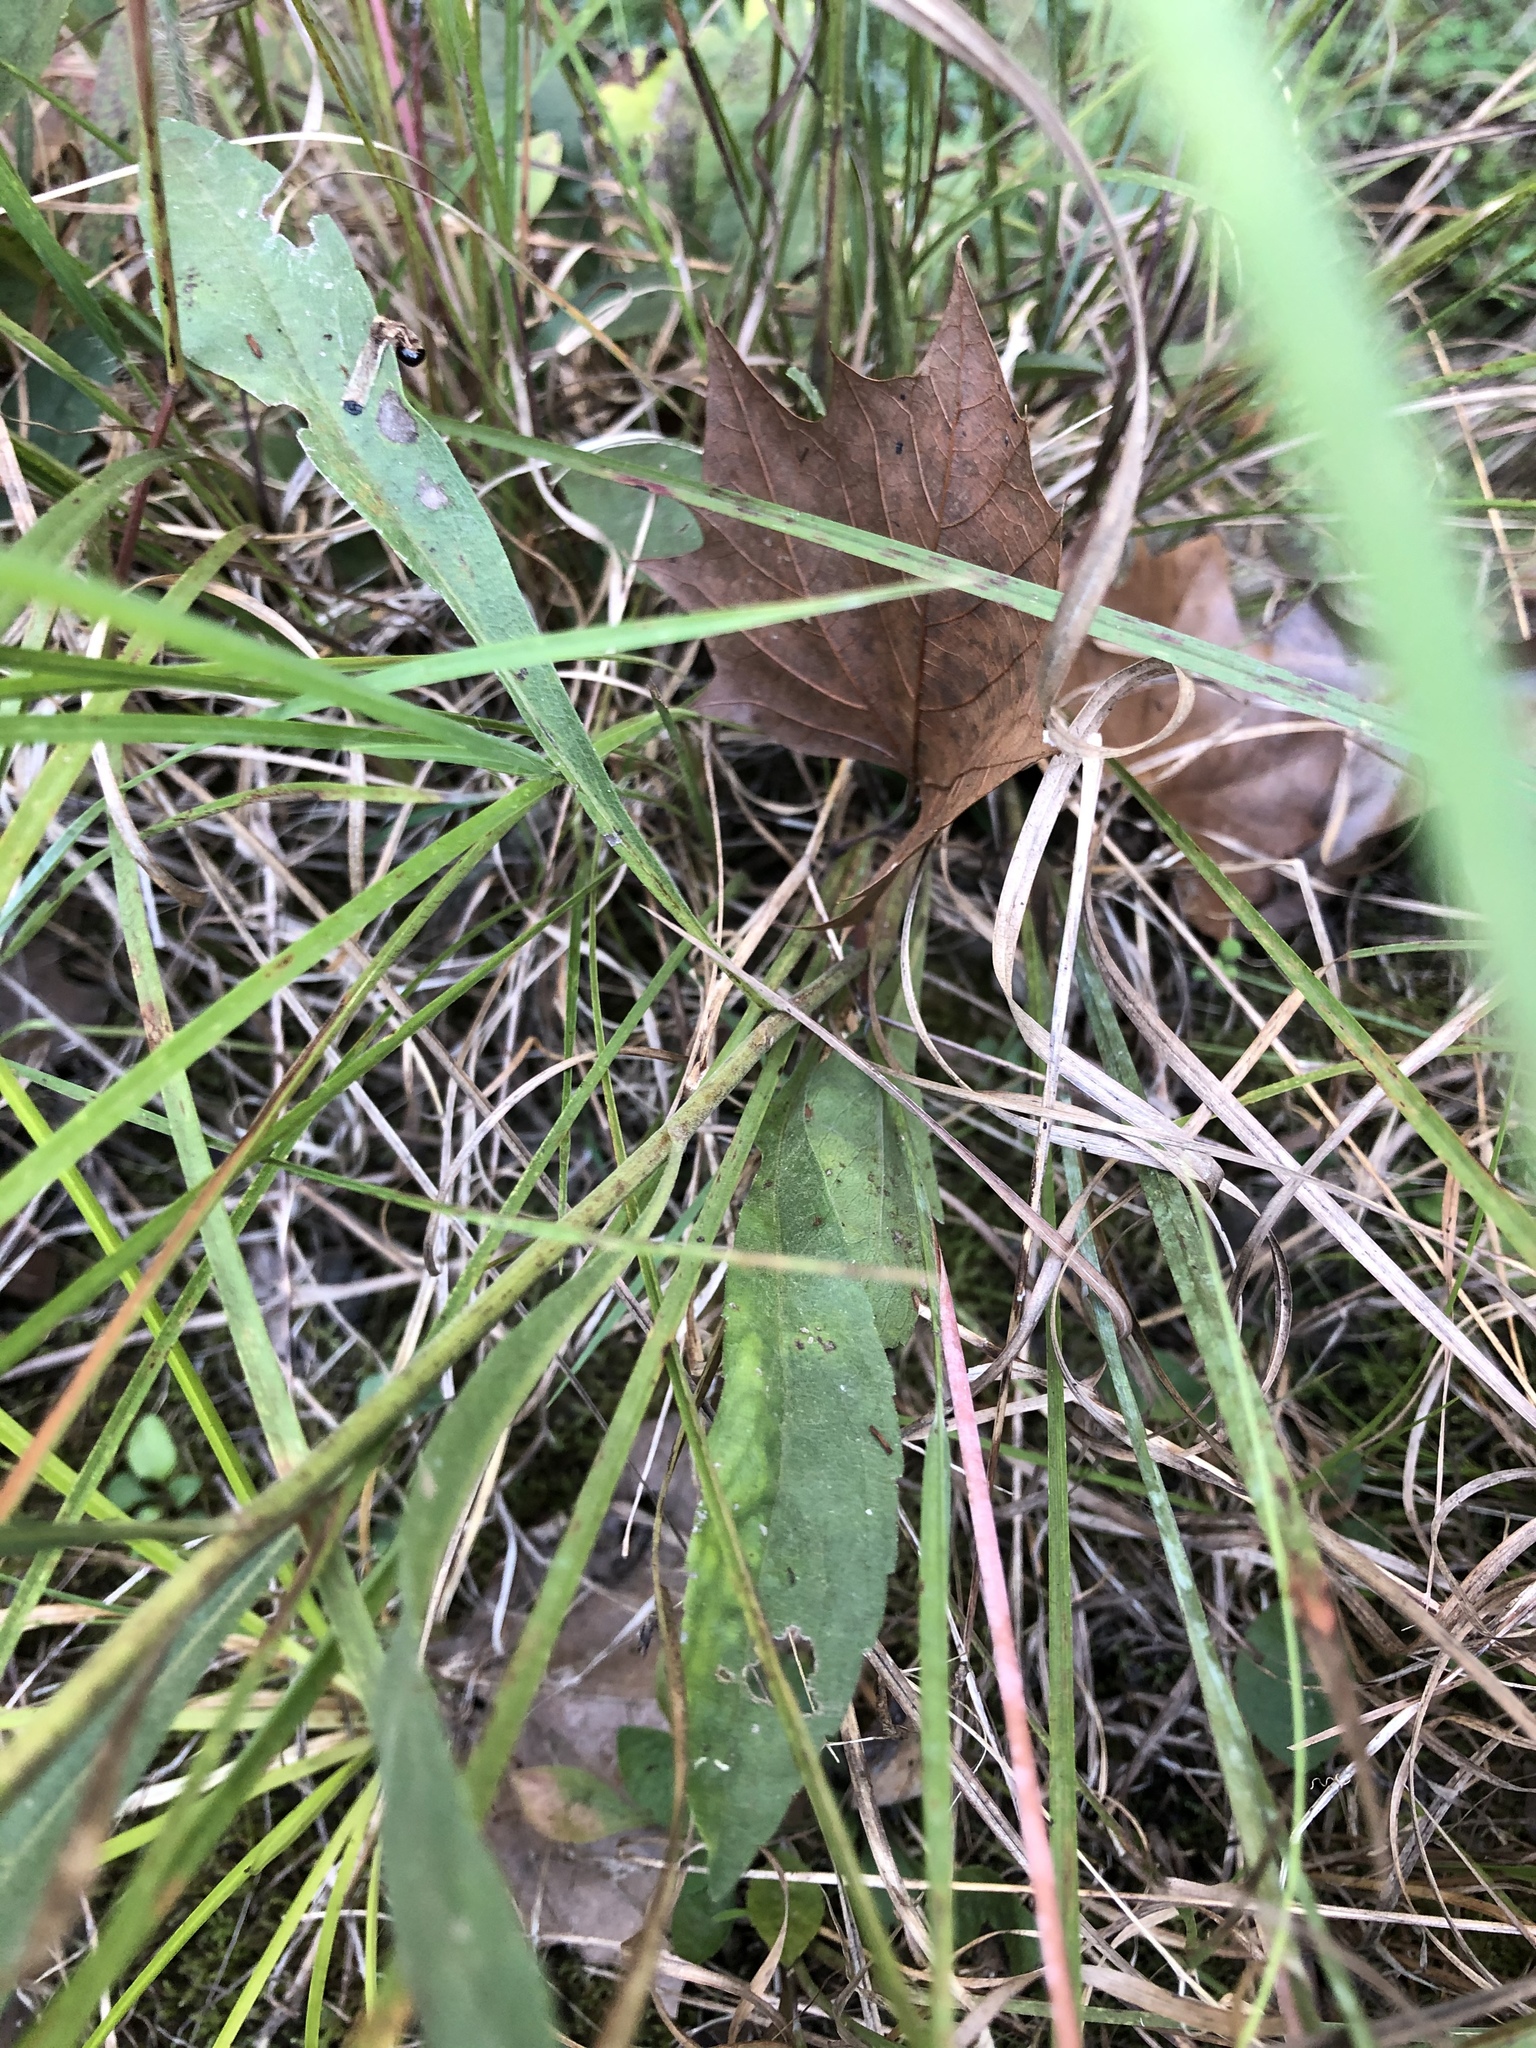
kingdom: Plantae
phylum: Tracheophyta
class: Magnoliopsida
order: Asterales
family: Asteraceae
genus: Solidago
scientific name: Solidago nemoralis
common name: Grey goldenrod
